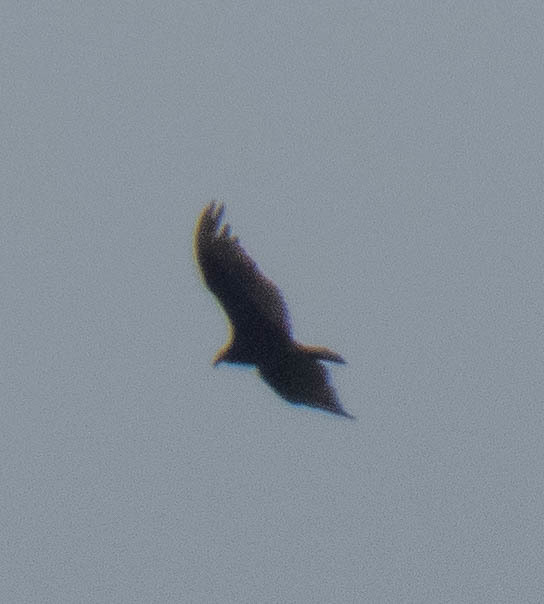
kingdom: Animalia
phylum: Chordata
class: Aves
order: Accipitriformes
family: Cathartidae
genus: Cathartes
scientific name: Cathartes aura
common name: Turkey vulture
